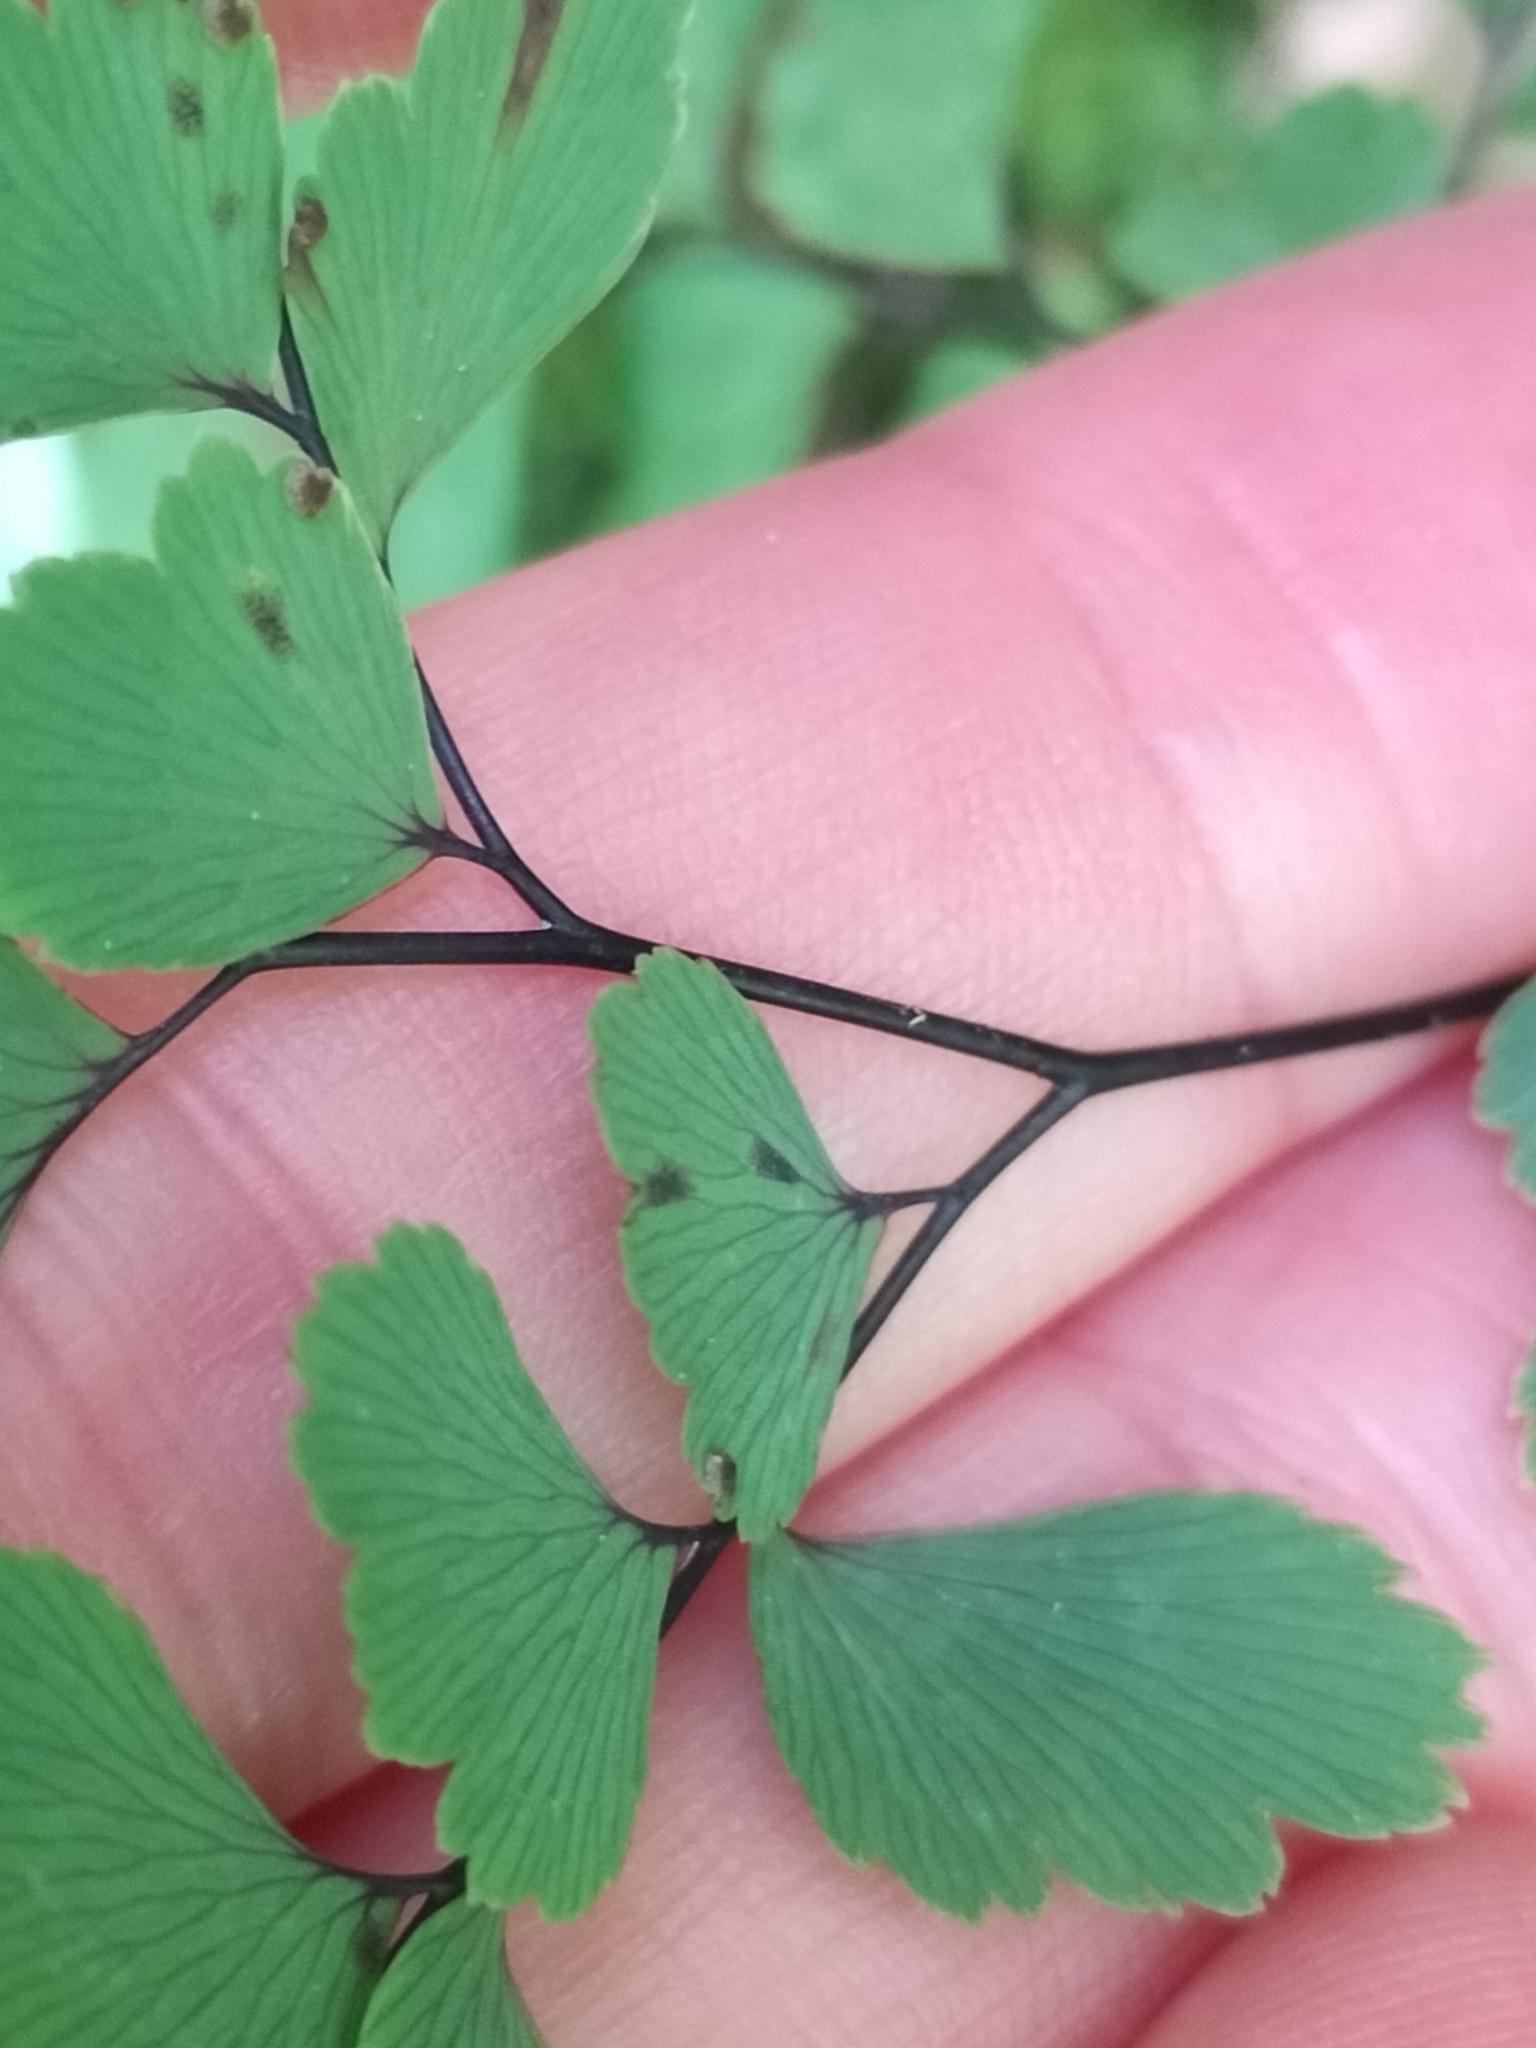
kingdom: Plantae
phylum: Tracheophyta
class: Polypodiopsida
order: Polypodiales
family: Pteridaceae
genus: Adiantum
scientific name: Adiantum cunninghamii
